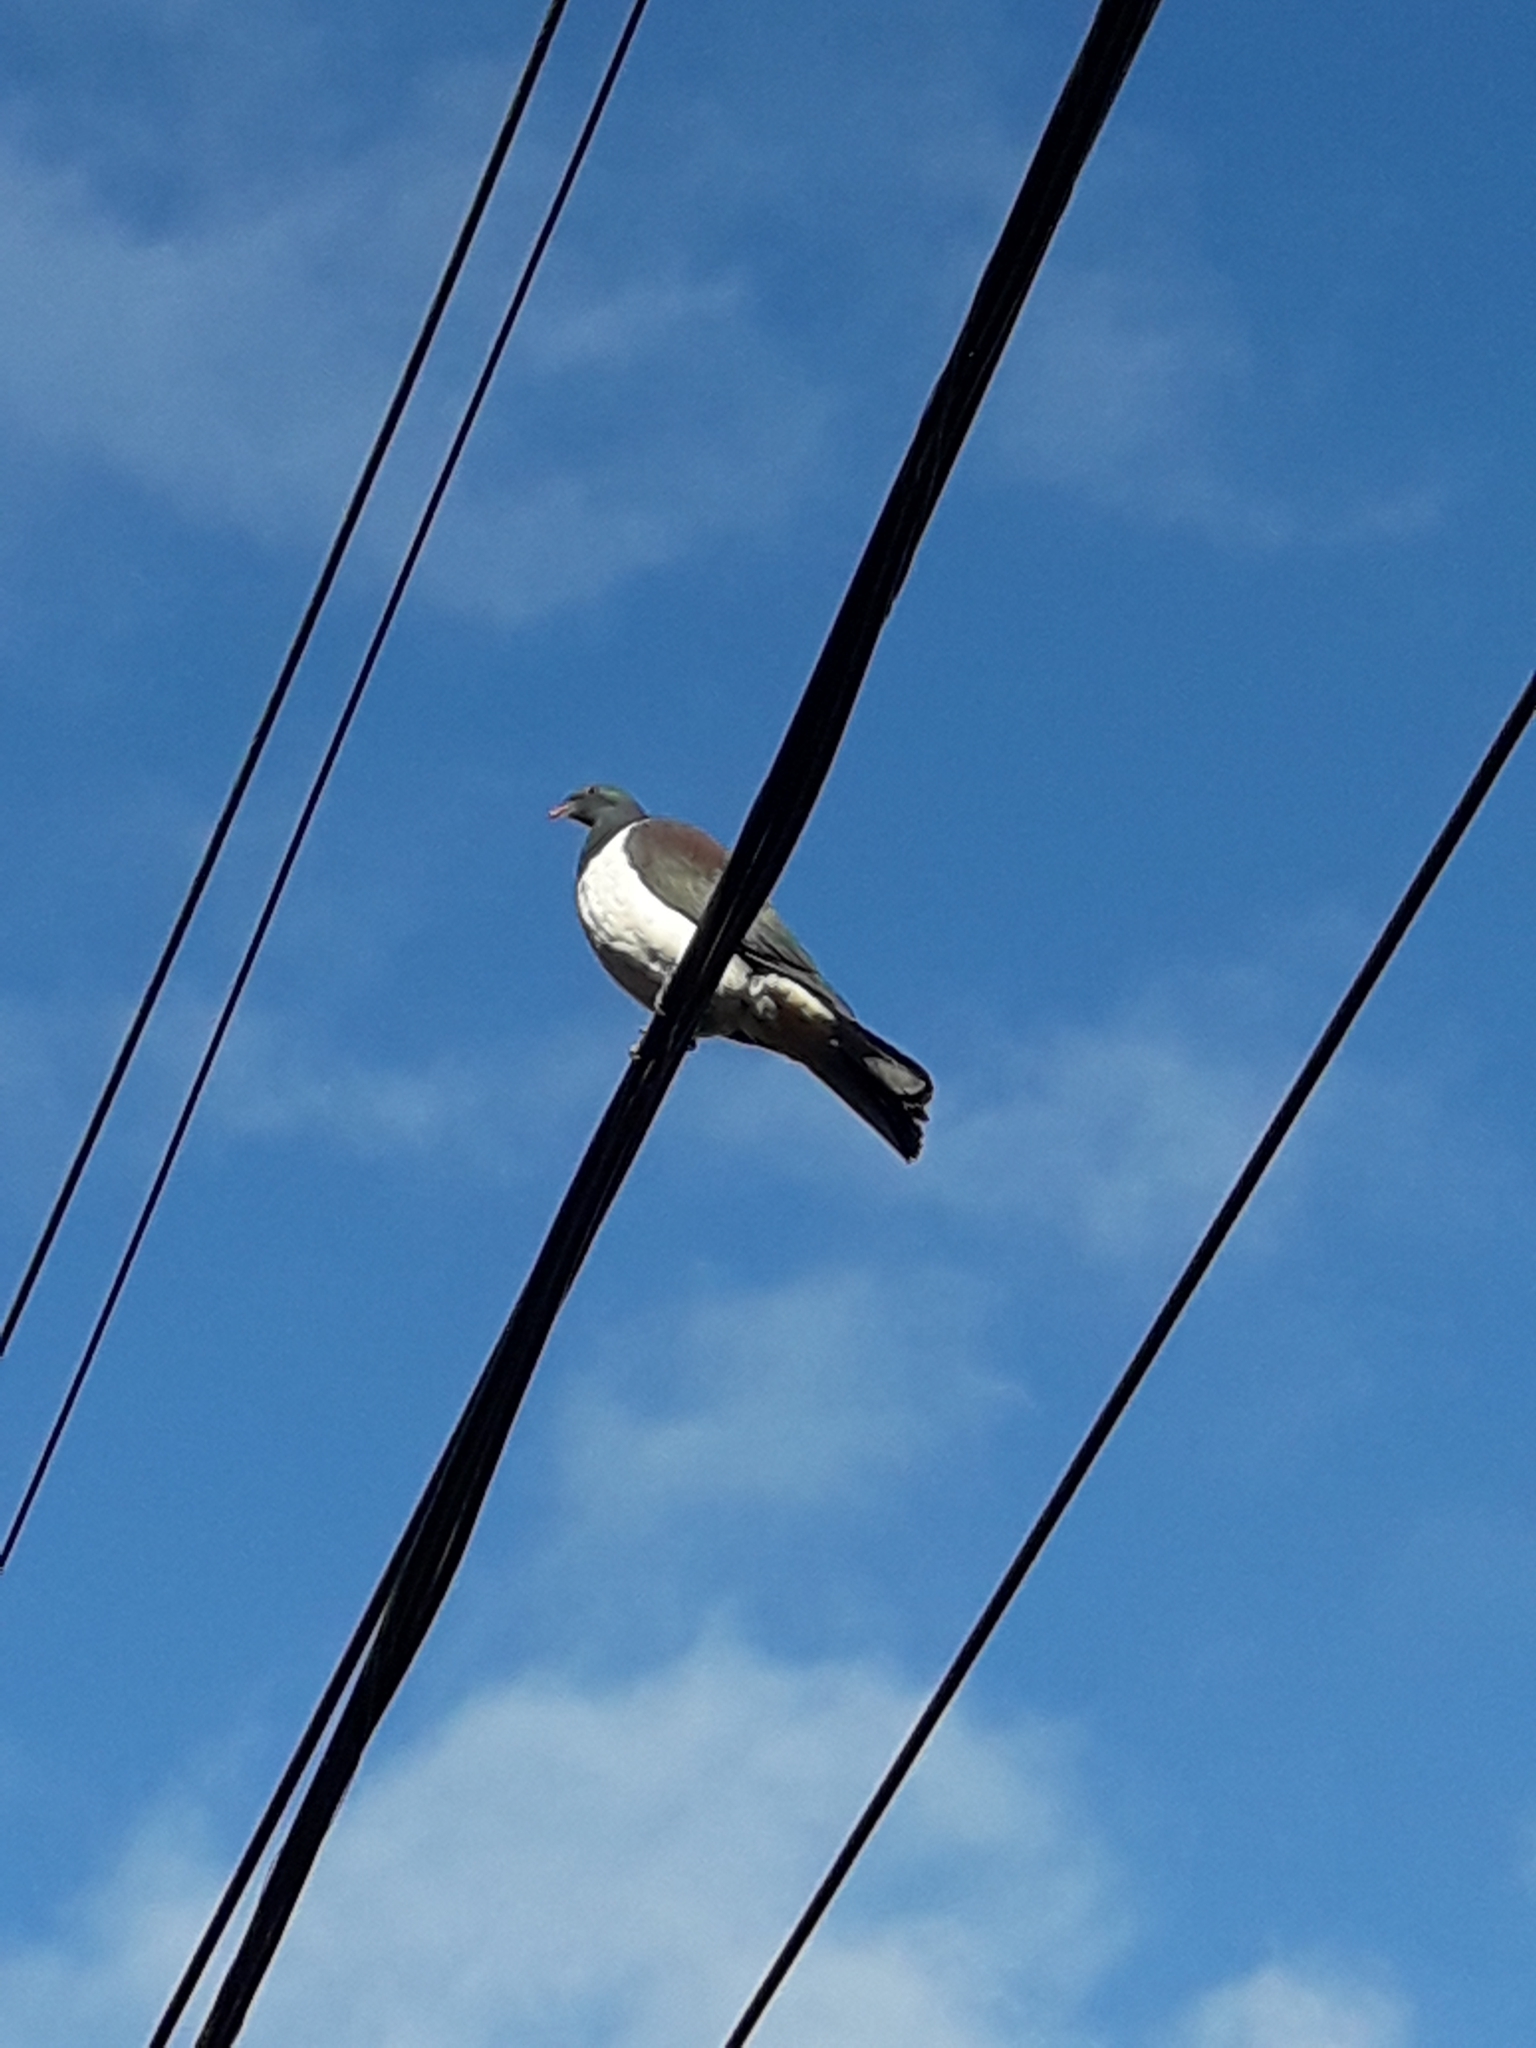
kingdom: Animalia
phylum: Chordata
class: Aves
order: Columbiformes
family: Columbidae
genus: Hemiphaga
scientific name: Hemiphaga novaeseelandiae
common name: New zealand pigeon
